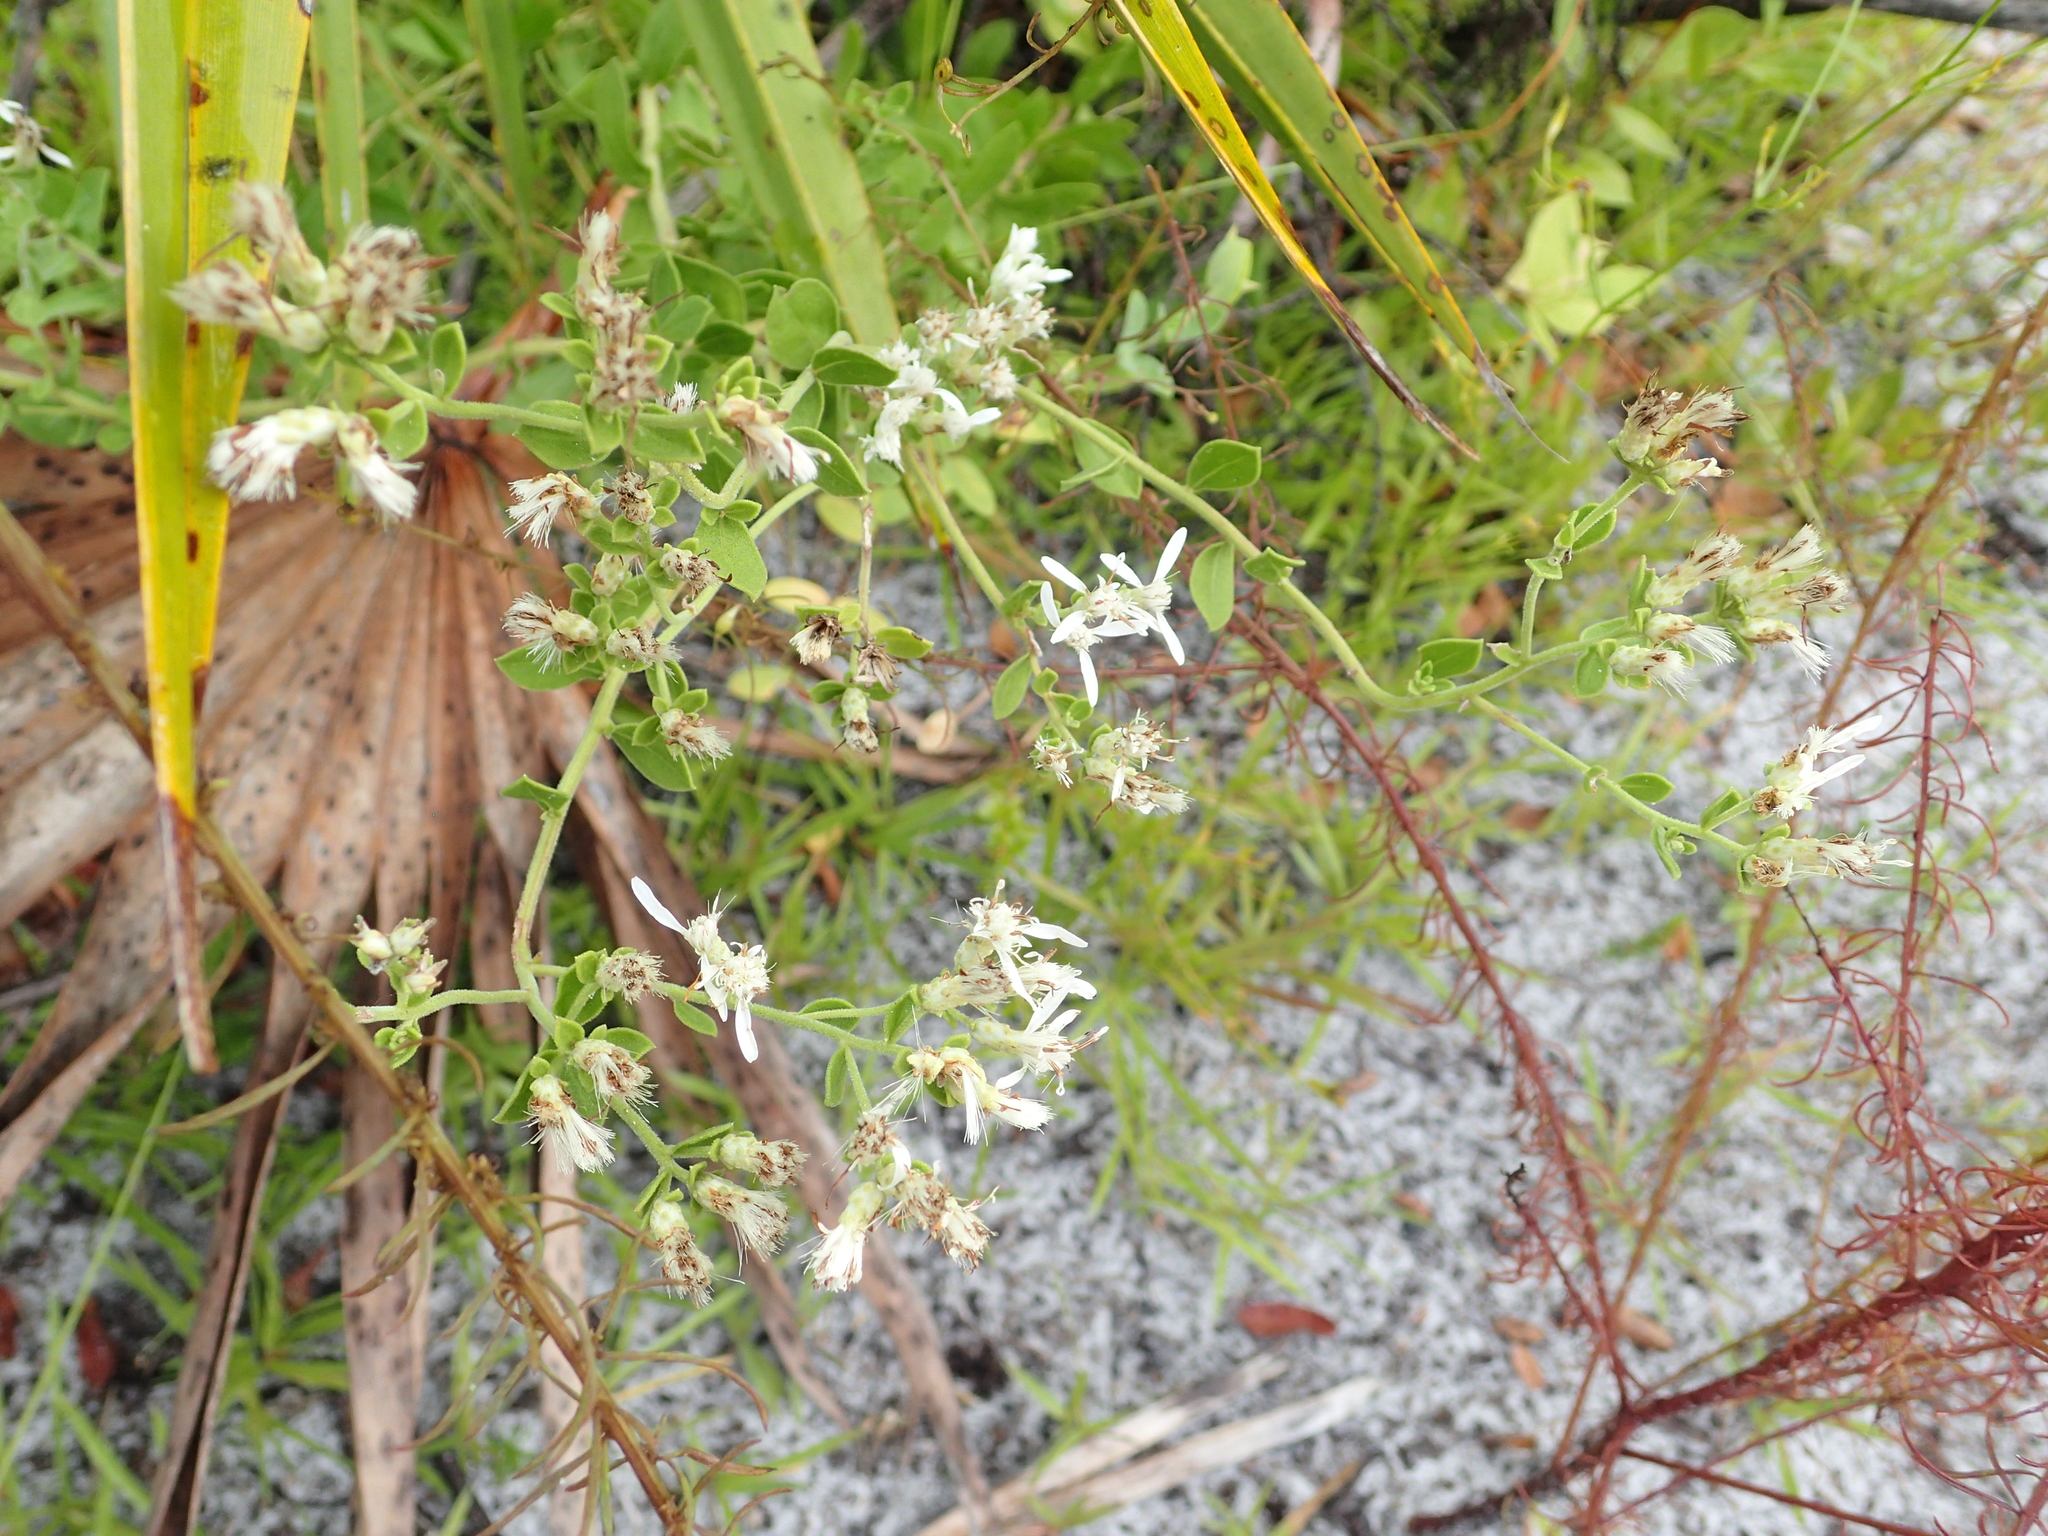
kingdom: Plantae
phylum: Tracheophyta
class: Magnoliopsida
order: Asterales
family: Asteraceae
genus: Sericocarpus
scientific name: Sericocarpus tortifolius
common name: Dixie aster
